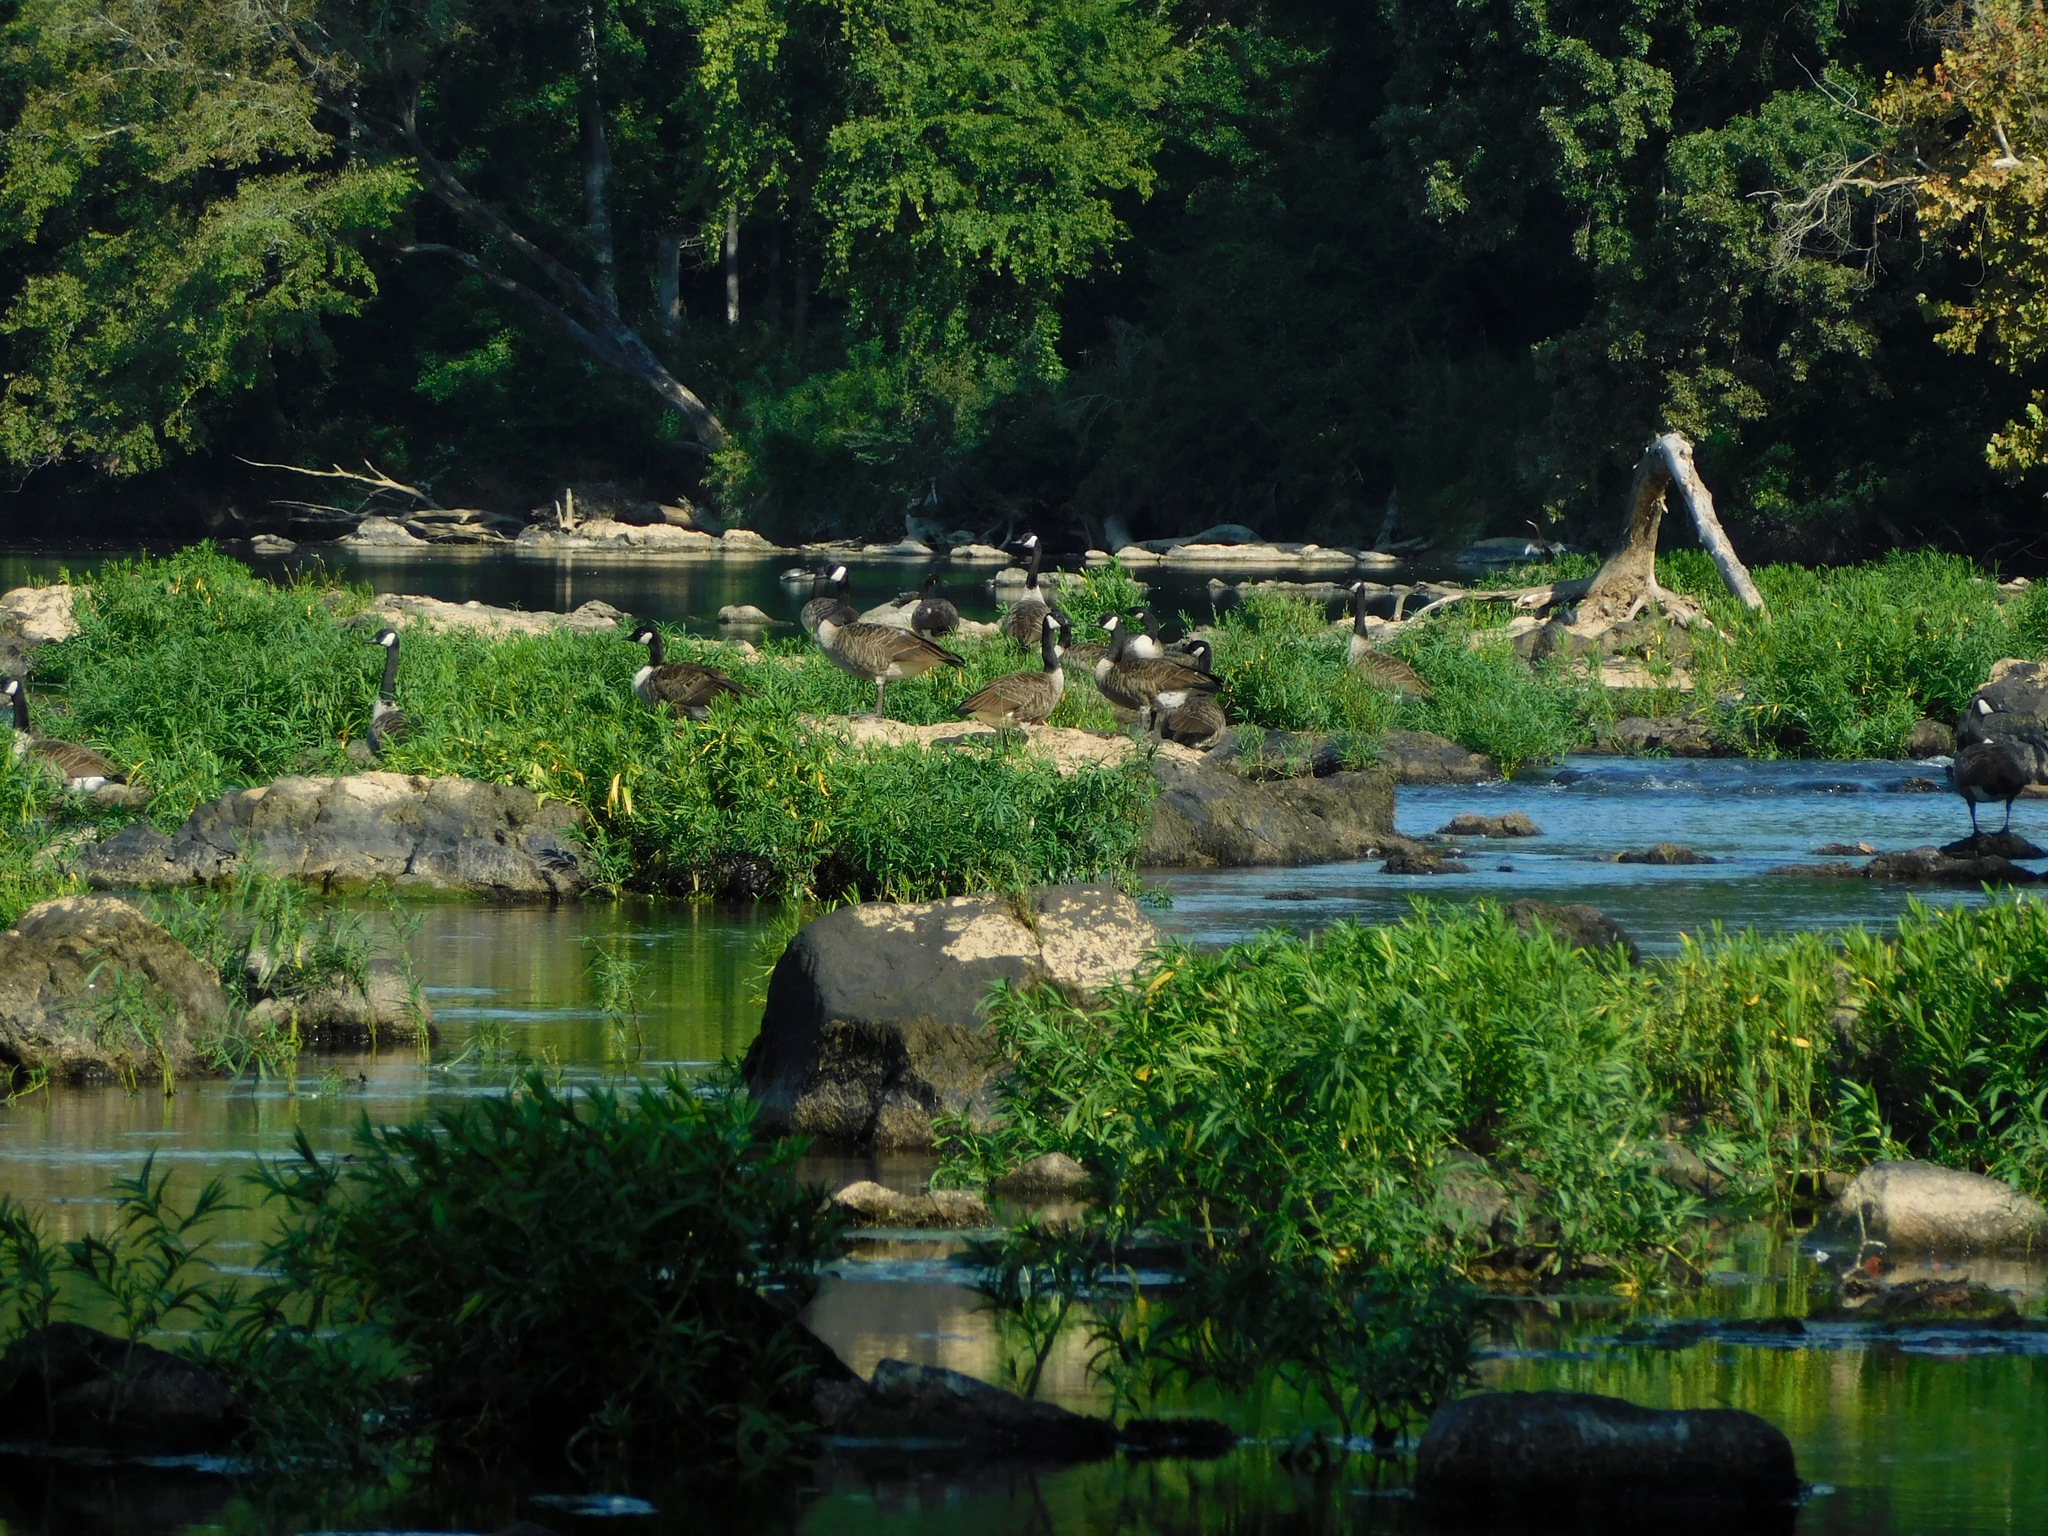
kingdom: Animalia
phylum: Chordata
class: Aves
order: Anseriformes
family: Anatidae
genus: Branta
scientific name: Branta canadensis
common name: Canada goose
